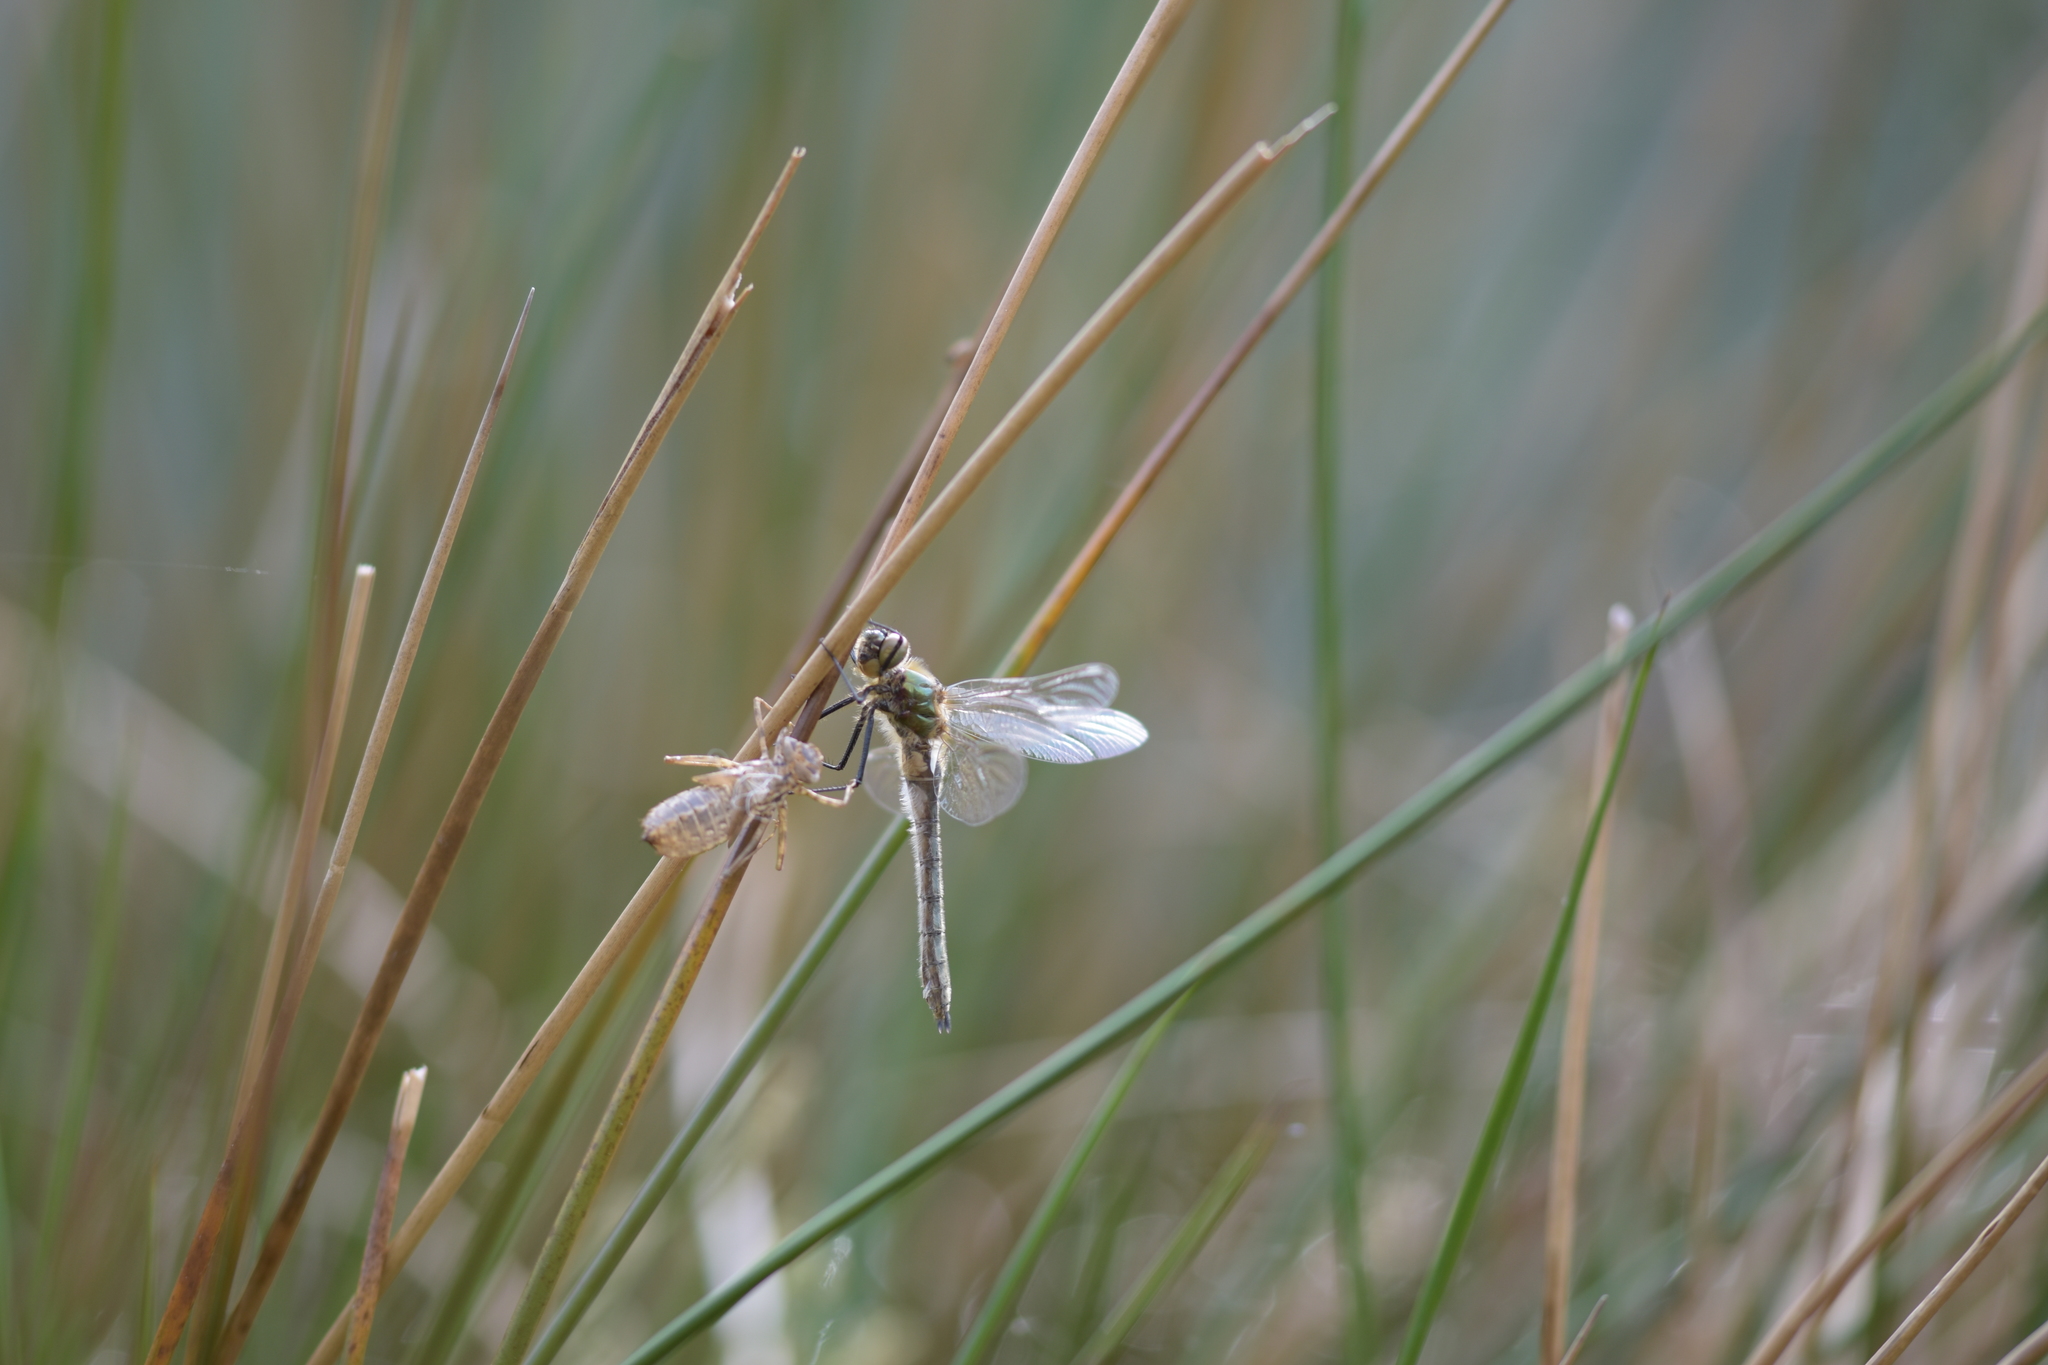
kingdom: Animalia
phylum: Arthropoda
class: Insecta
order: Odonata
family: Corduliidae
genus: Cordulia
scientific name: Cordulia aenea
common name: Downy emerald
